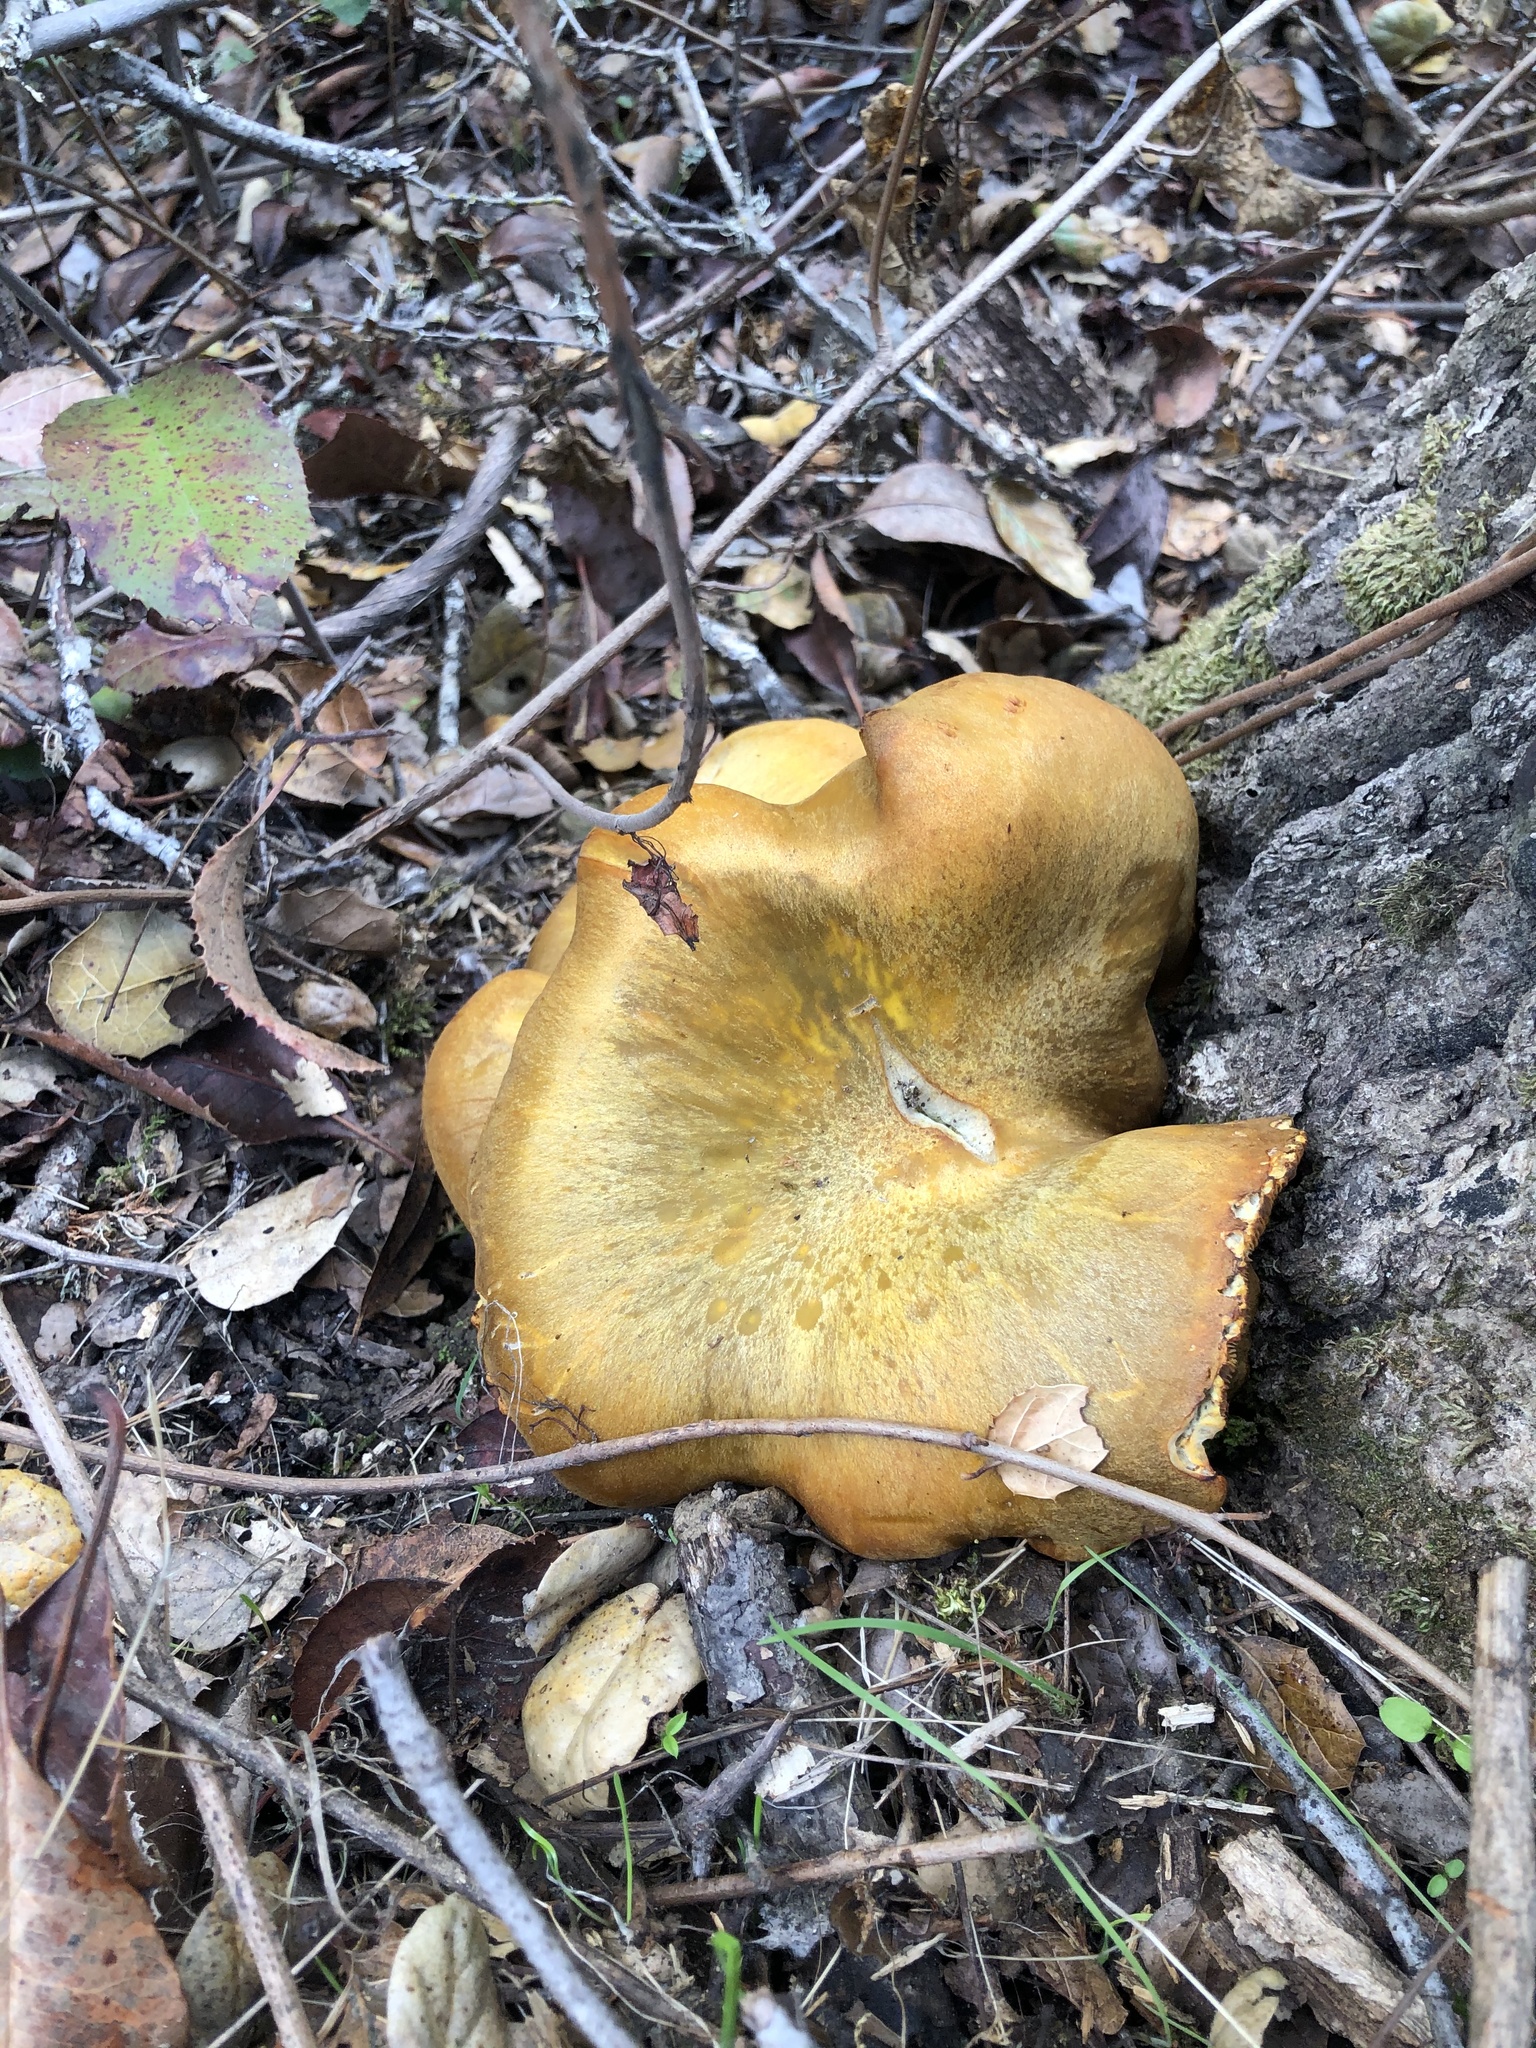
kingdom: Fungi
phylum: Basidiomycota
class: Agaricomycetes
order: Agaricales
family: Omphalotaceae
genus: Omphalotus
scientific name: Omphalotus olivascens
